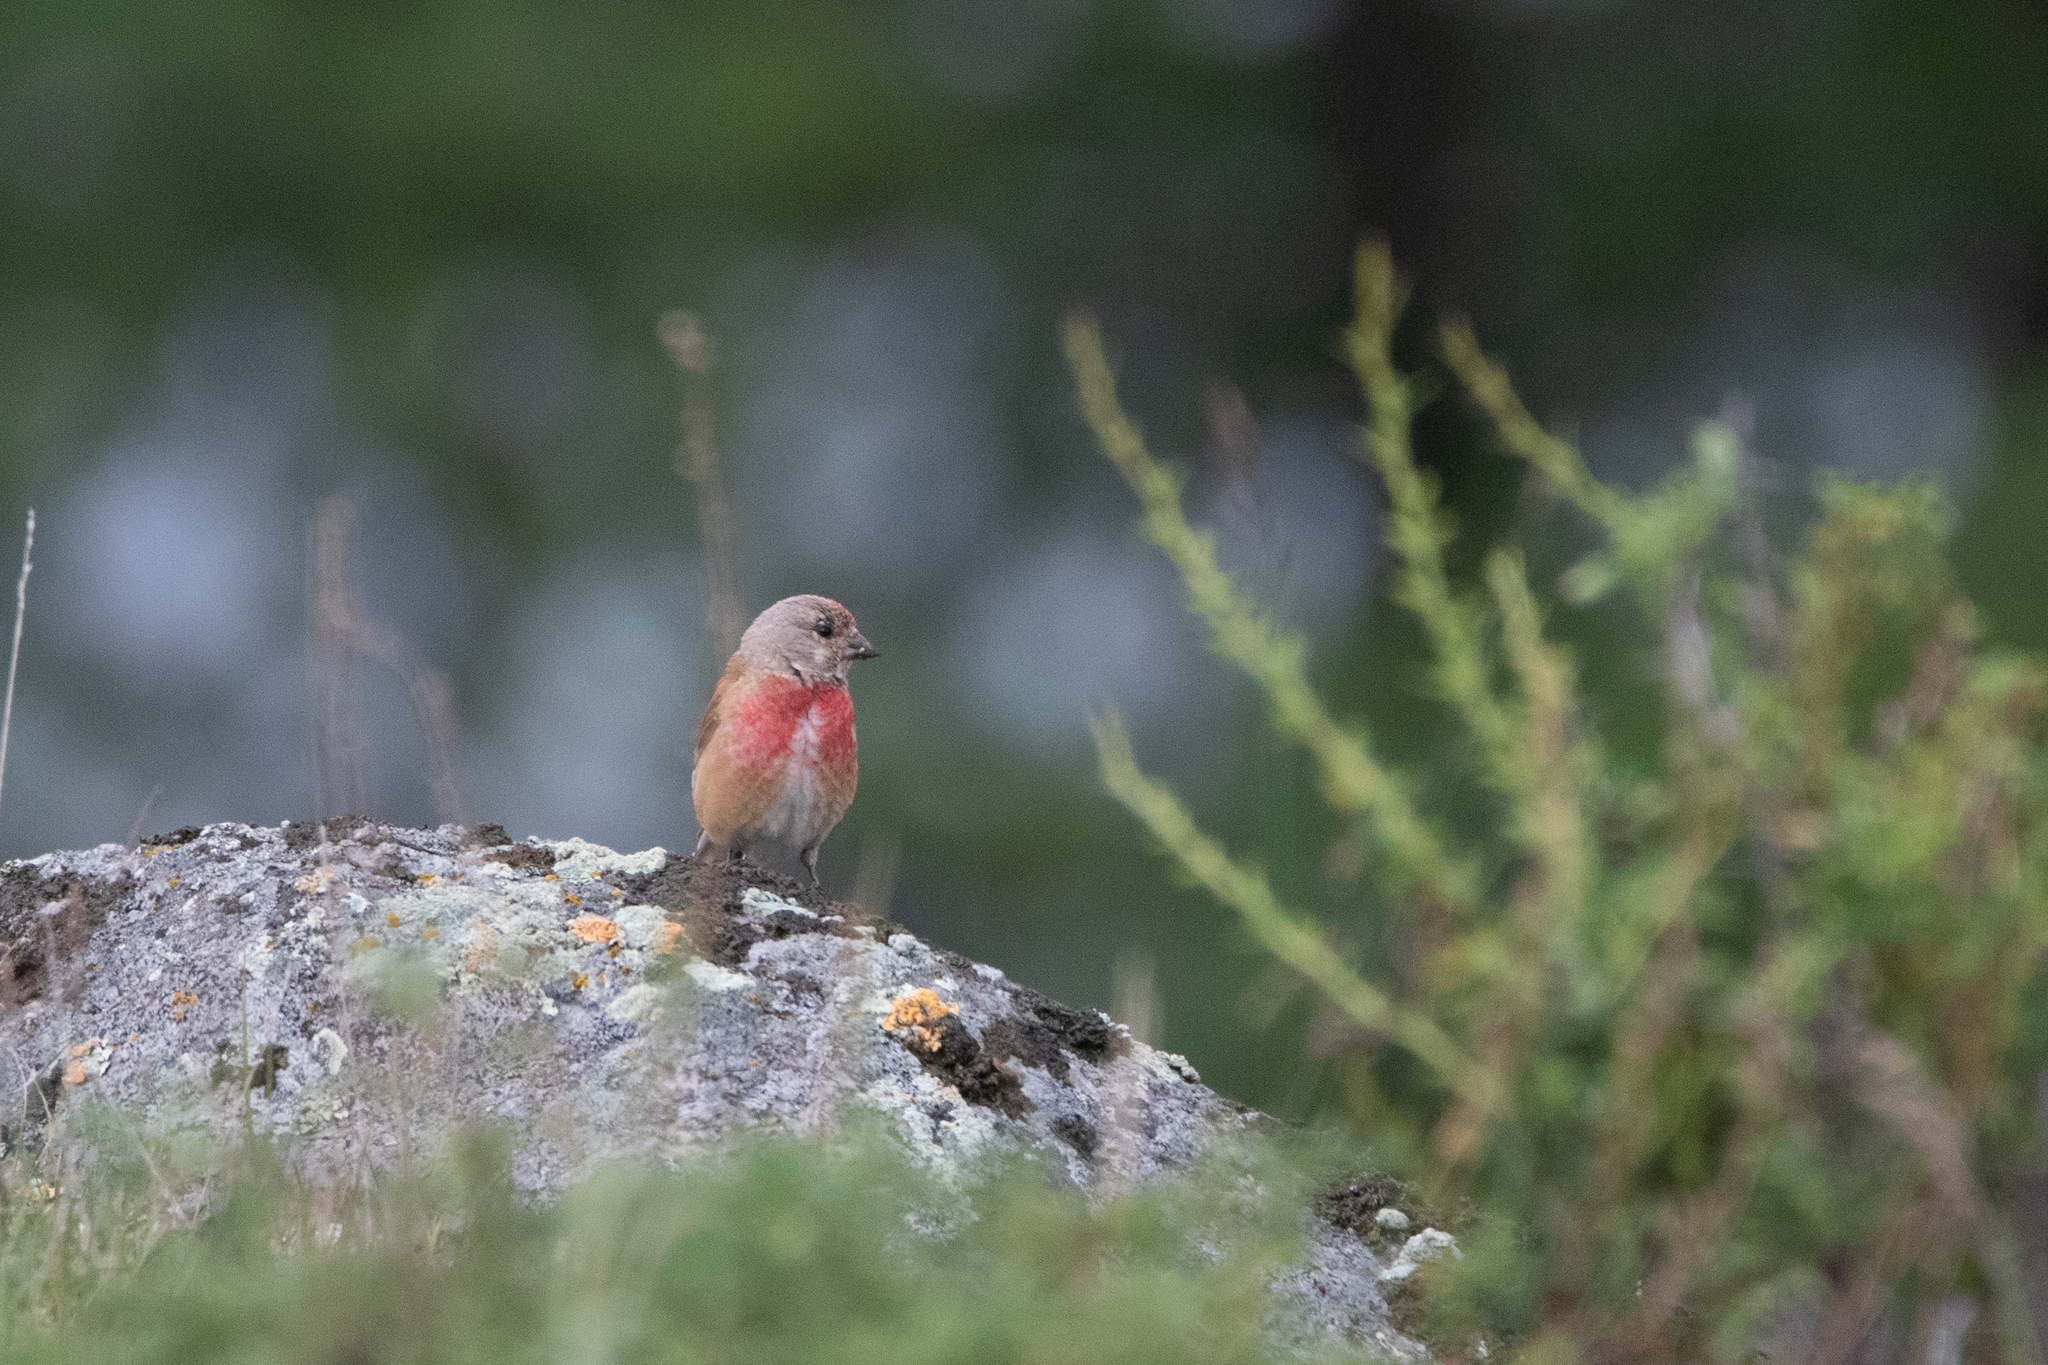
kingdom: Animalia
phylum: Chordata
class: Aves
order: Passeriformes
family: Fringillidae
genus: Linaria
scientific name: Linaria cannabina
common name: Common linnet
